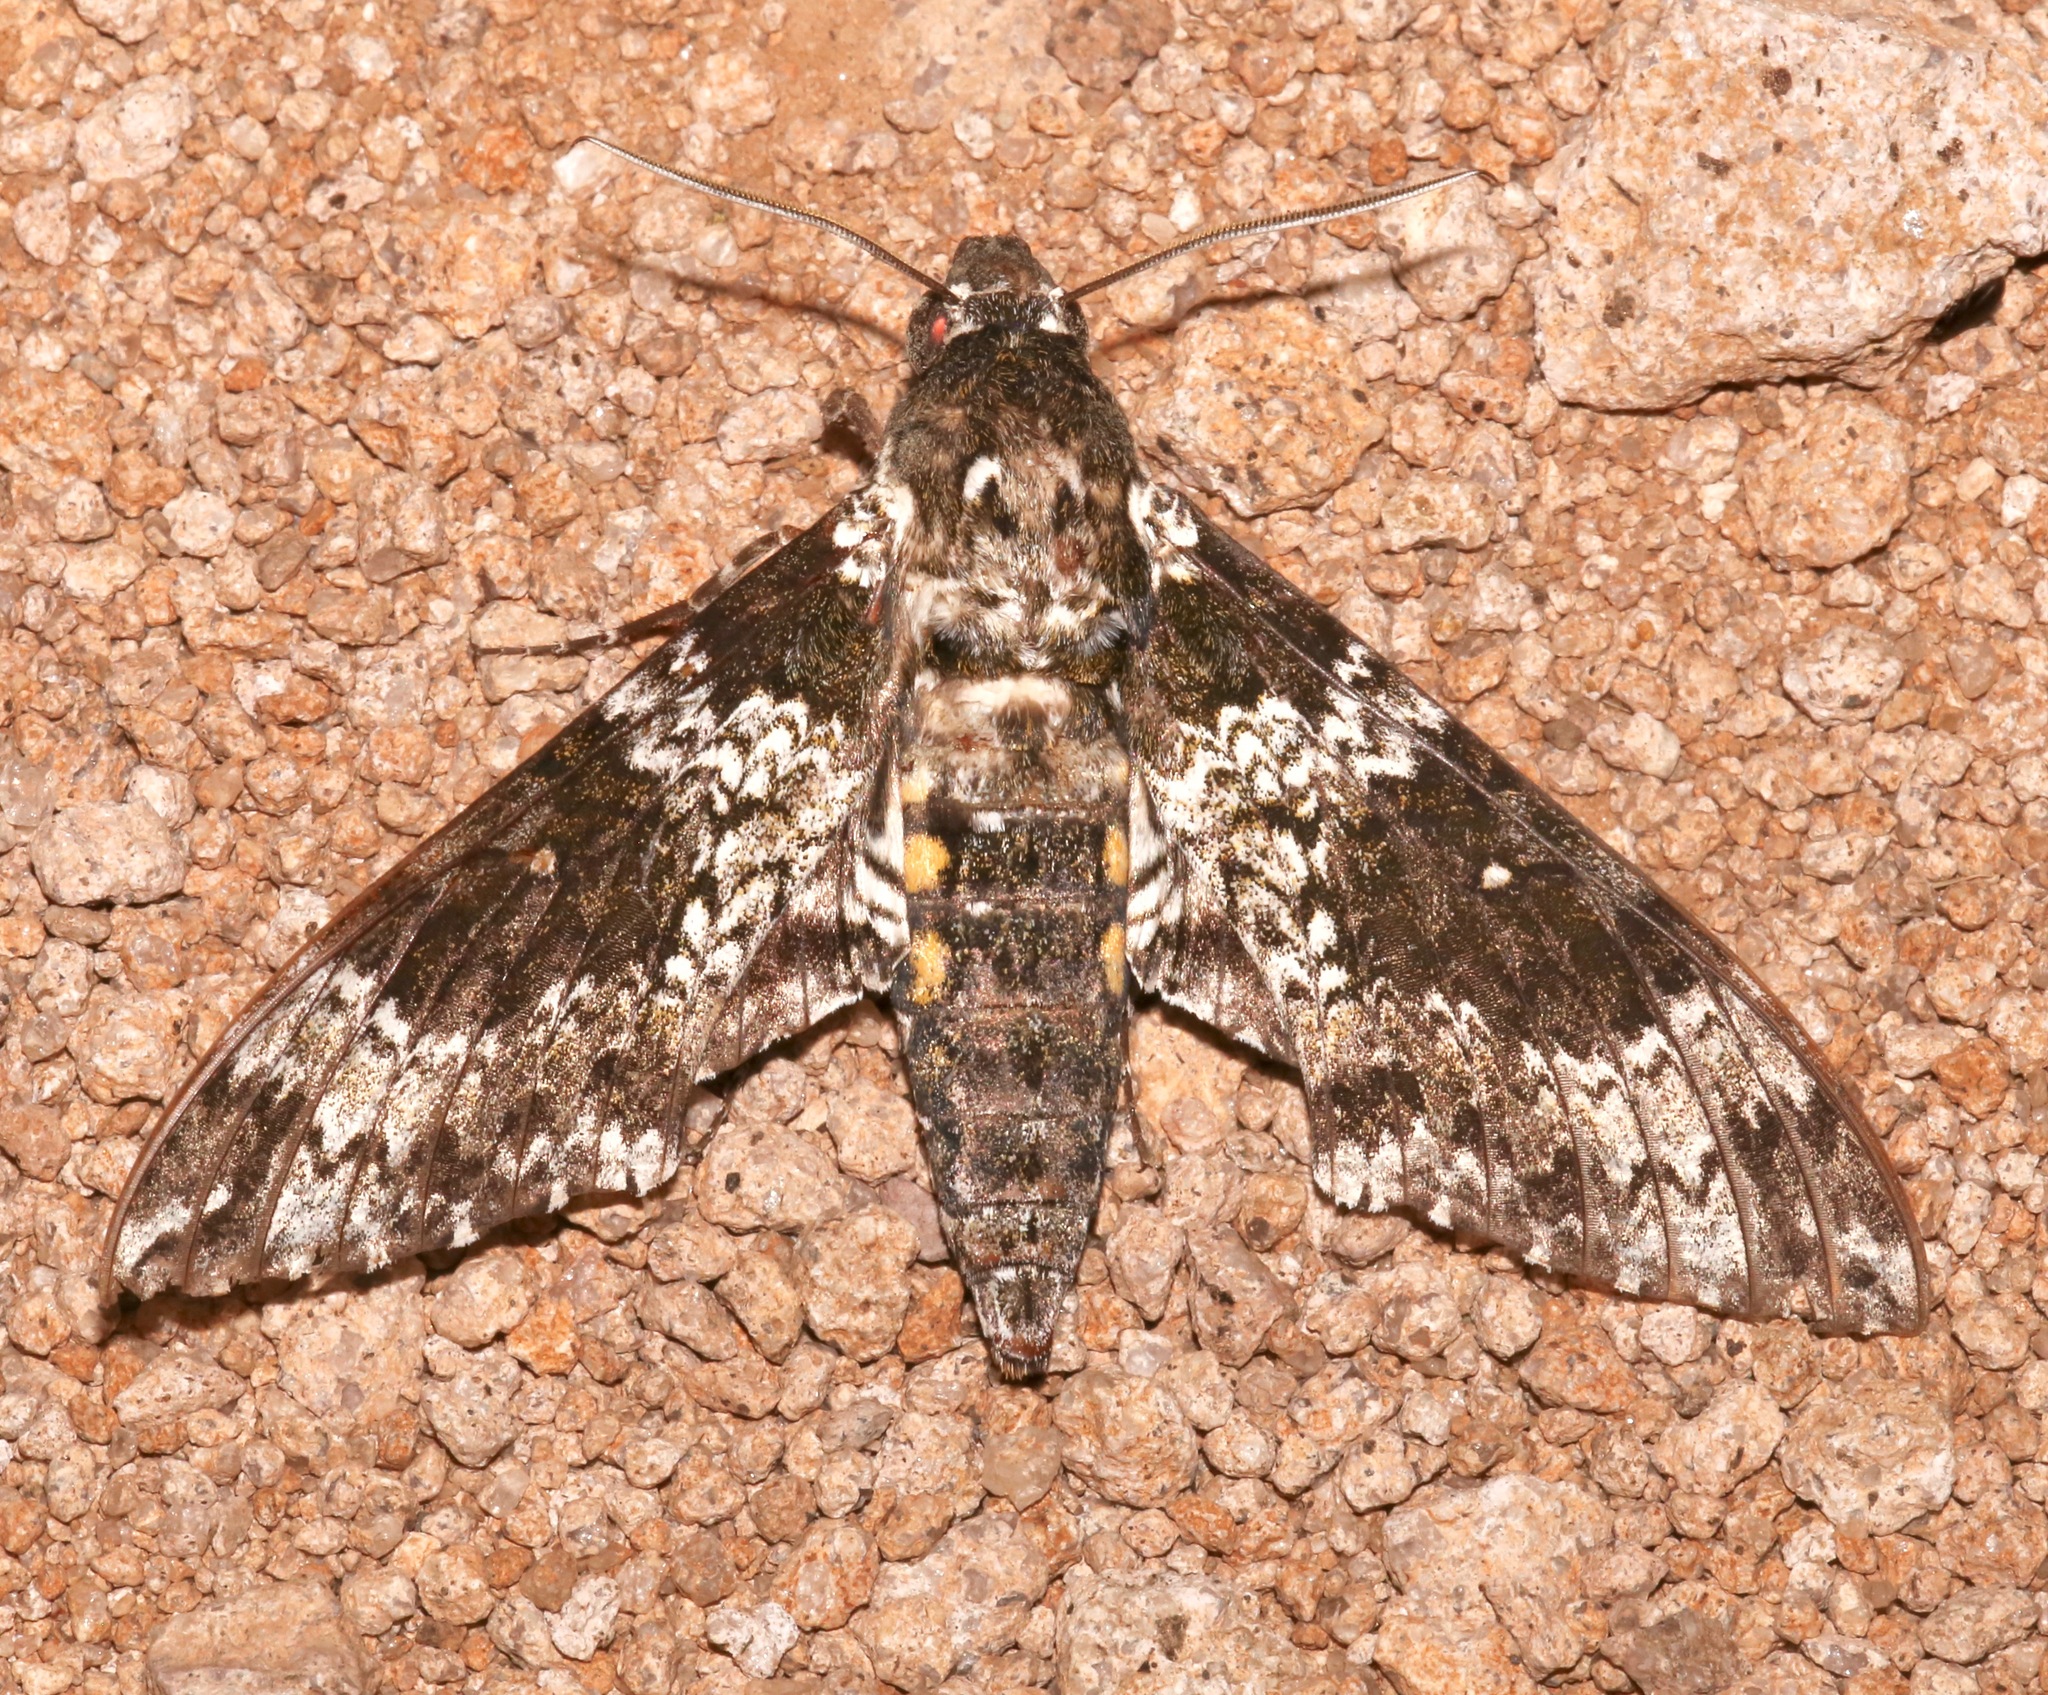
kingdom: Animalia
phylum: Arthropoda
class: Insecta
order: Lepidoptera
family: Sphingidae
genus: Manduca
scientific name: Manduca rustica
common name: Rustic sphinx
